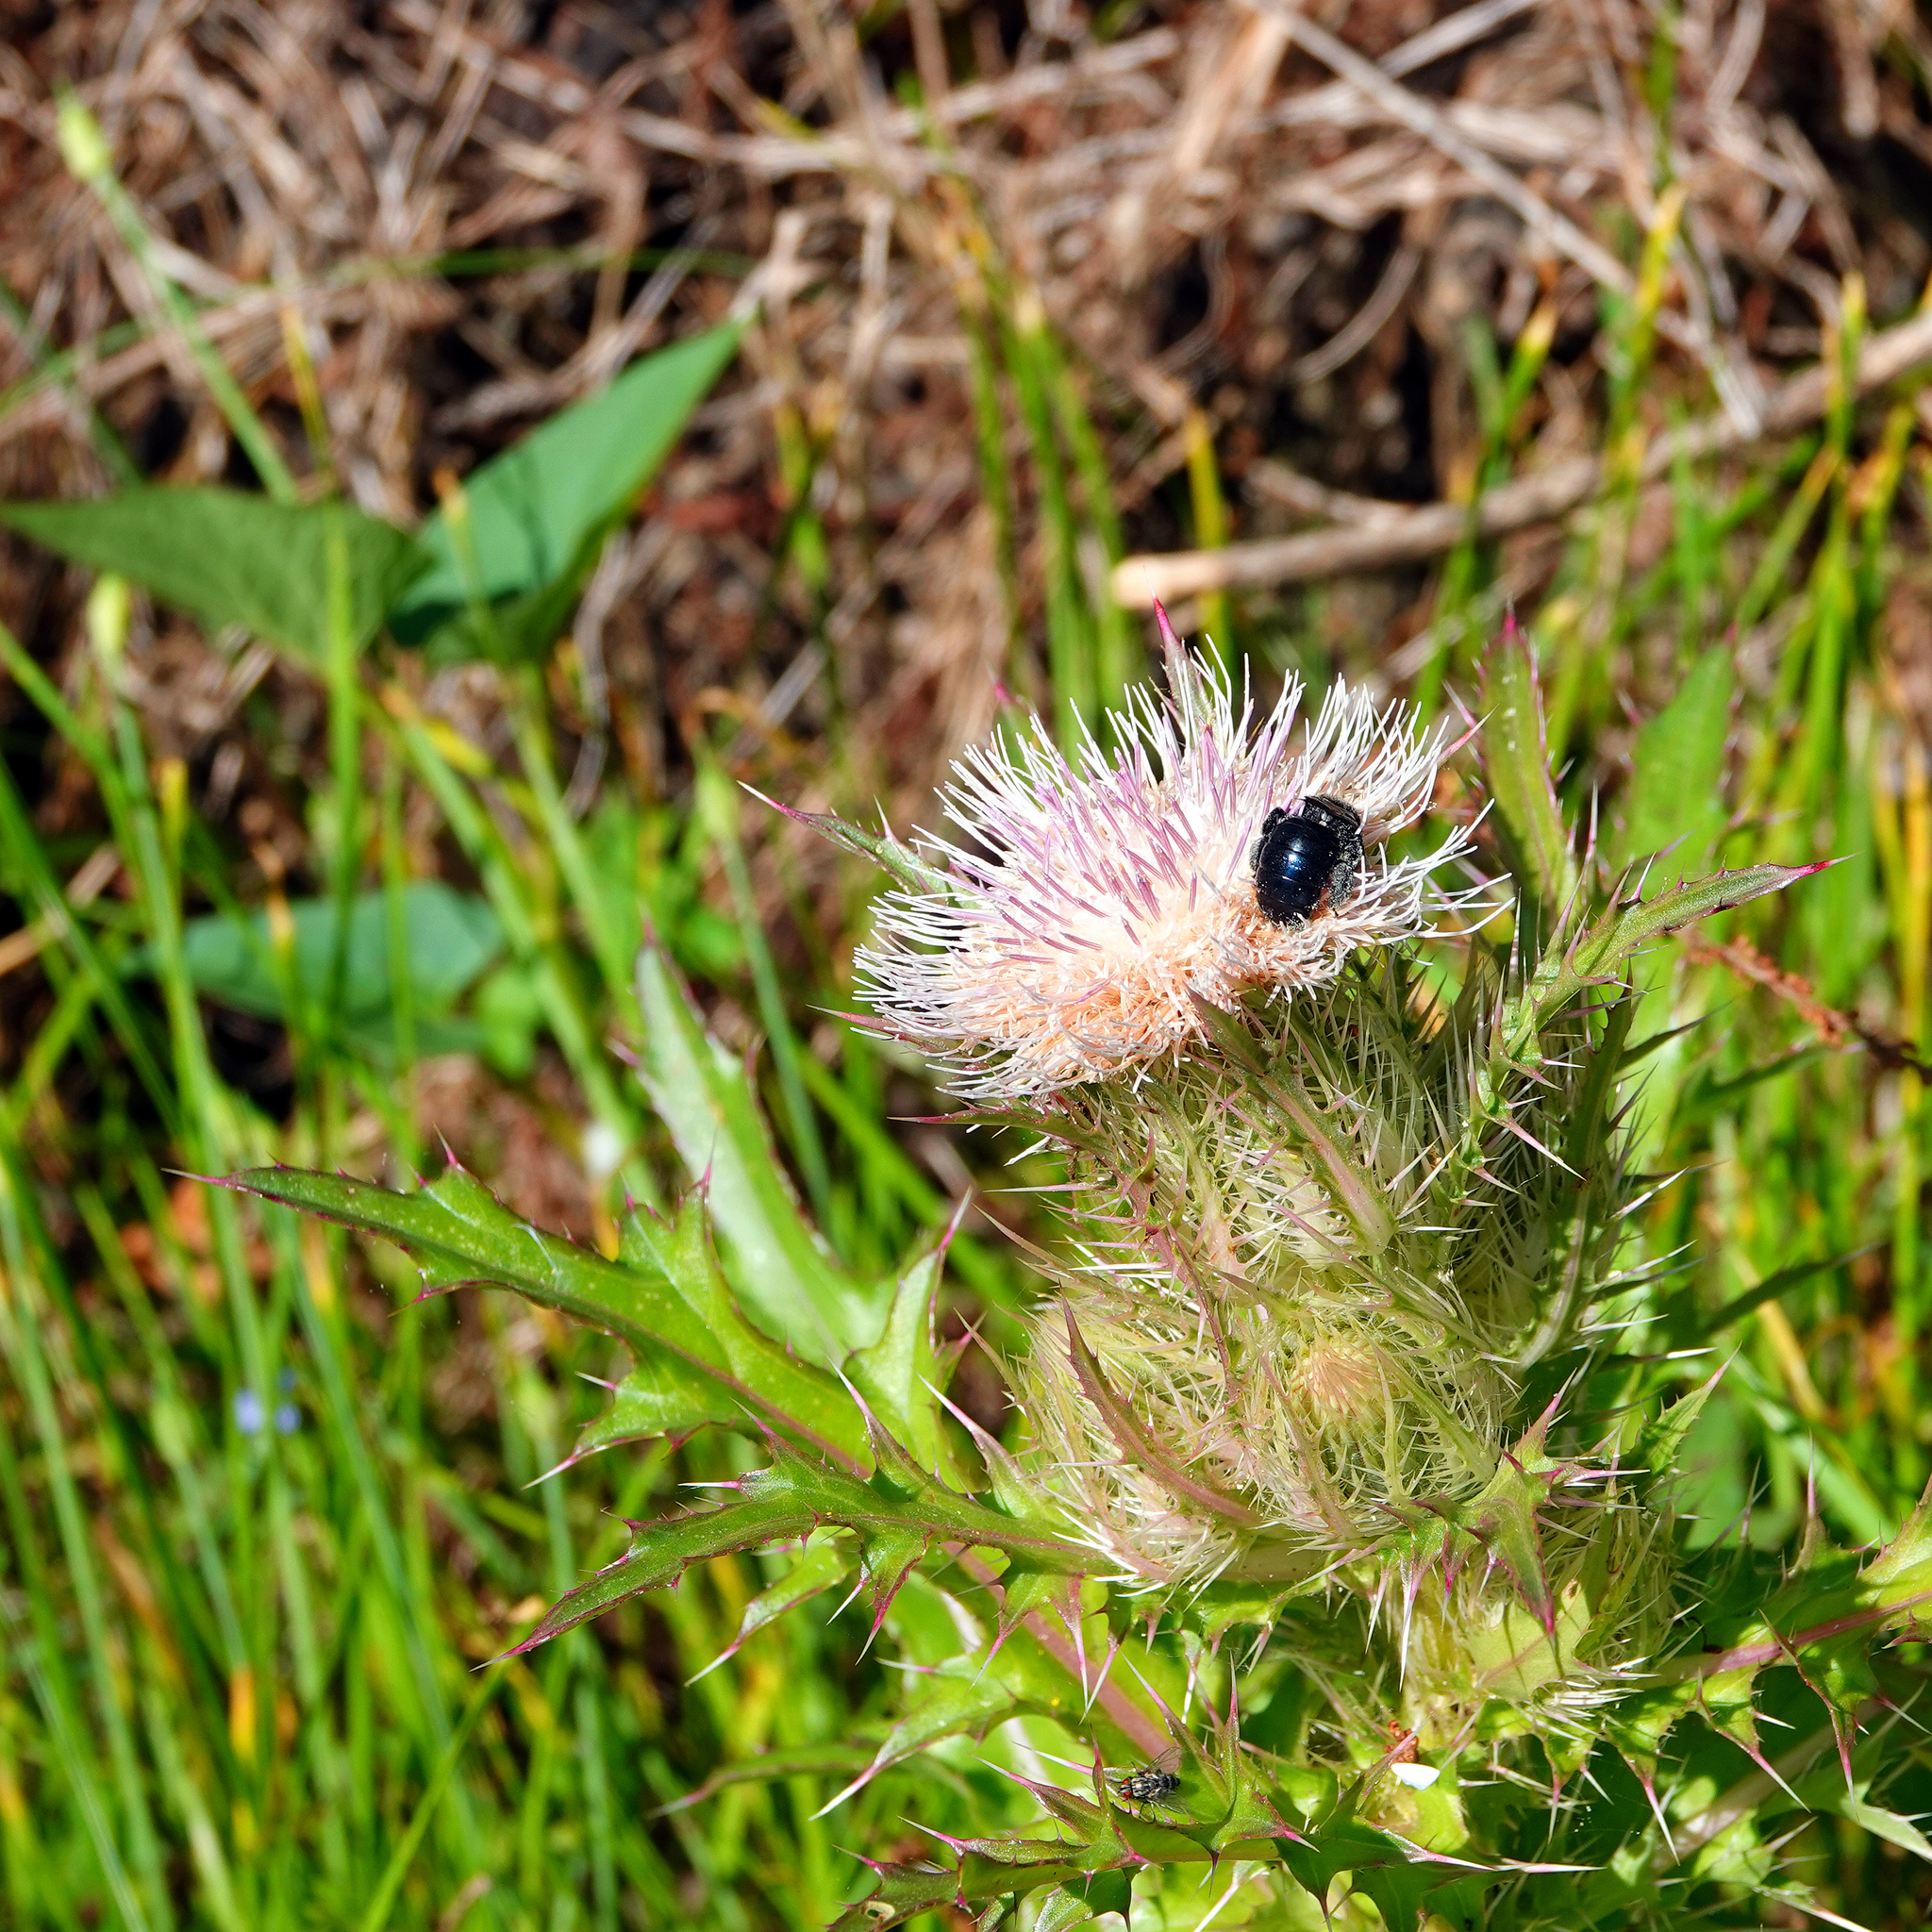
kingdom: Plantae
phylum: Tracheophyta
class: Magnoliopsida
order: Asterales
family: Asteraceae
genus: Cirsium
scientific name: Cirsium horridulum
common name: Bristly thistle
